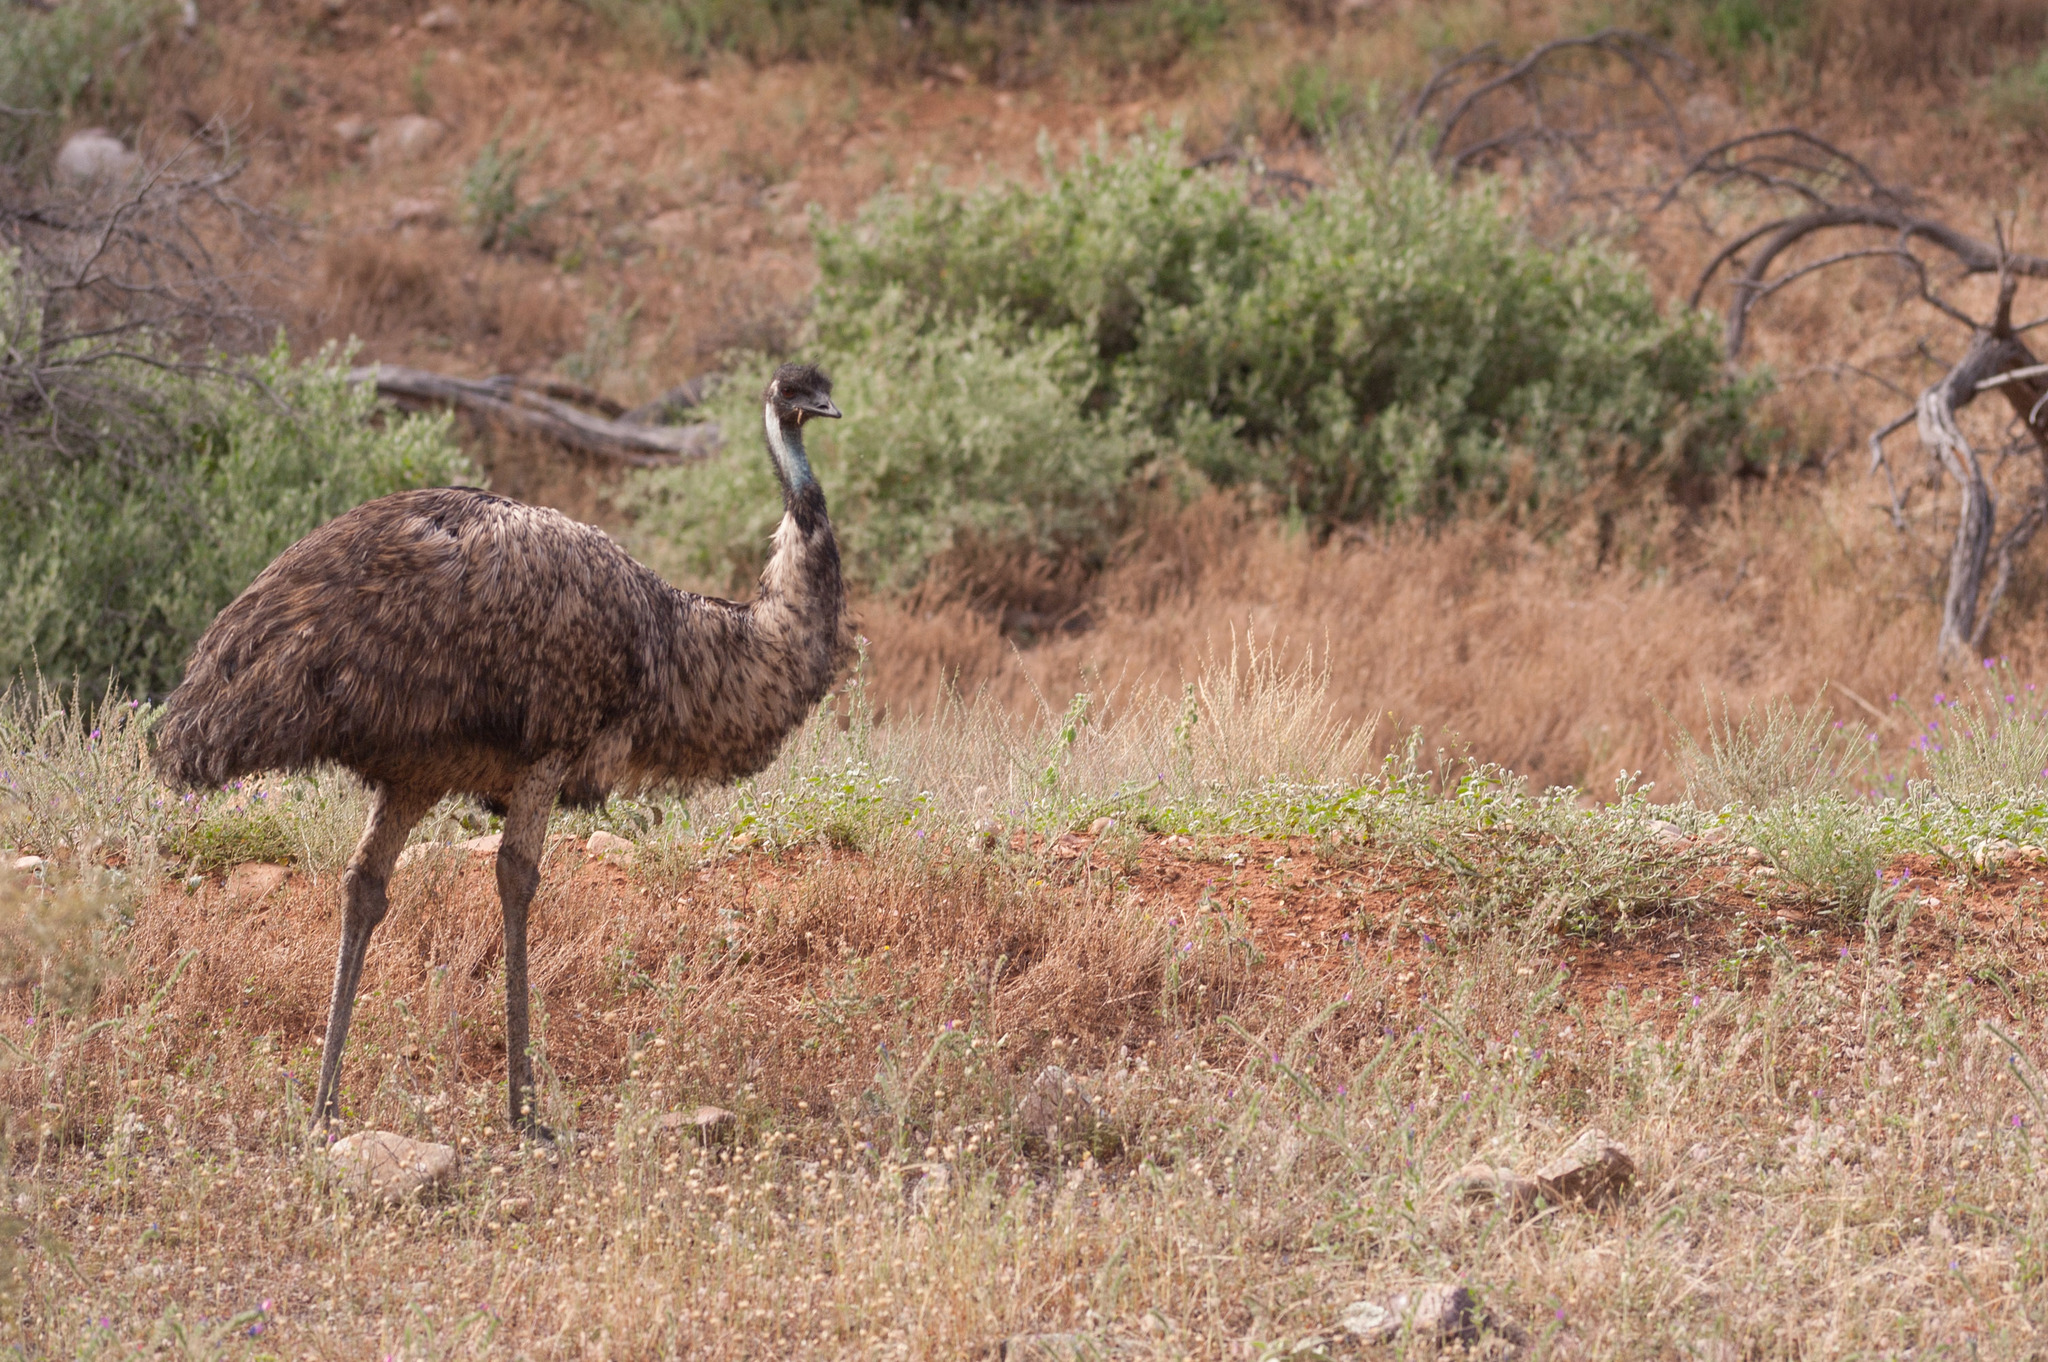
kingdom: Animalia
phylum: Chordata
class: Aves
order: Casuariiformes
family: Dromaiidae
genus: Dromaius
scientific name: Dromaius novaehollandiae
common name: Emu
